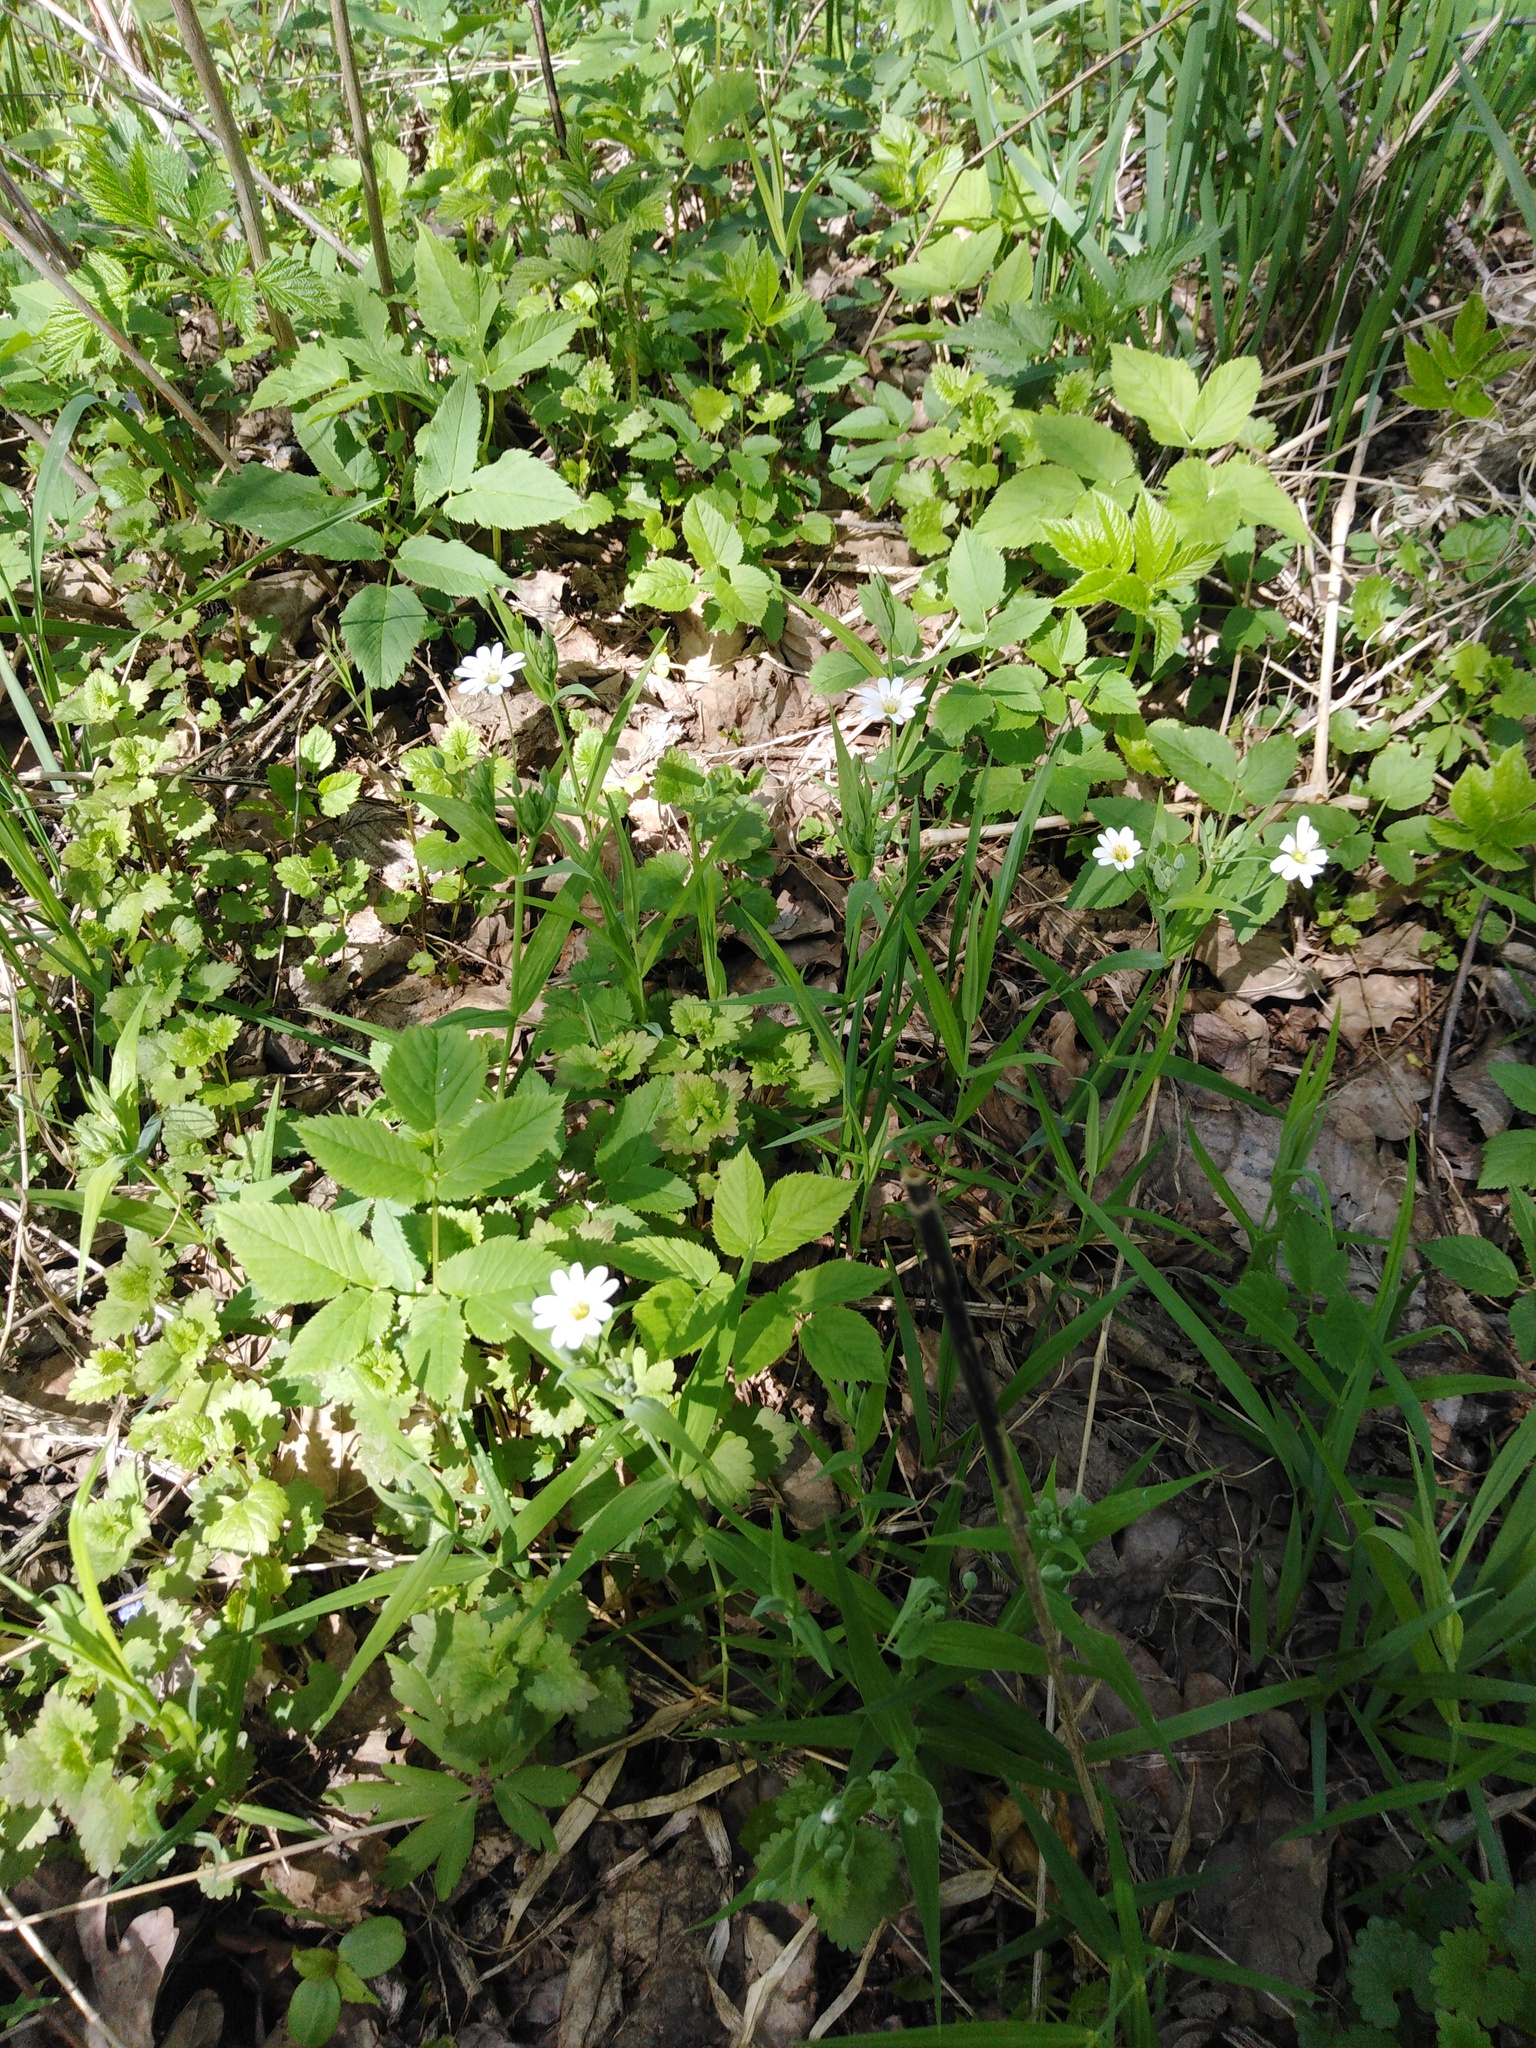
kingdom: Plantae
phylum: Tracheophyta
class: Magnoliopsida
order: Caryophyllales
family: Caryophyllaceae
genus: Rabelera
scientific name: Rabelera holostea
